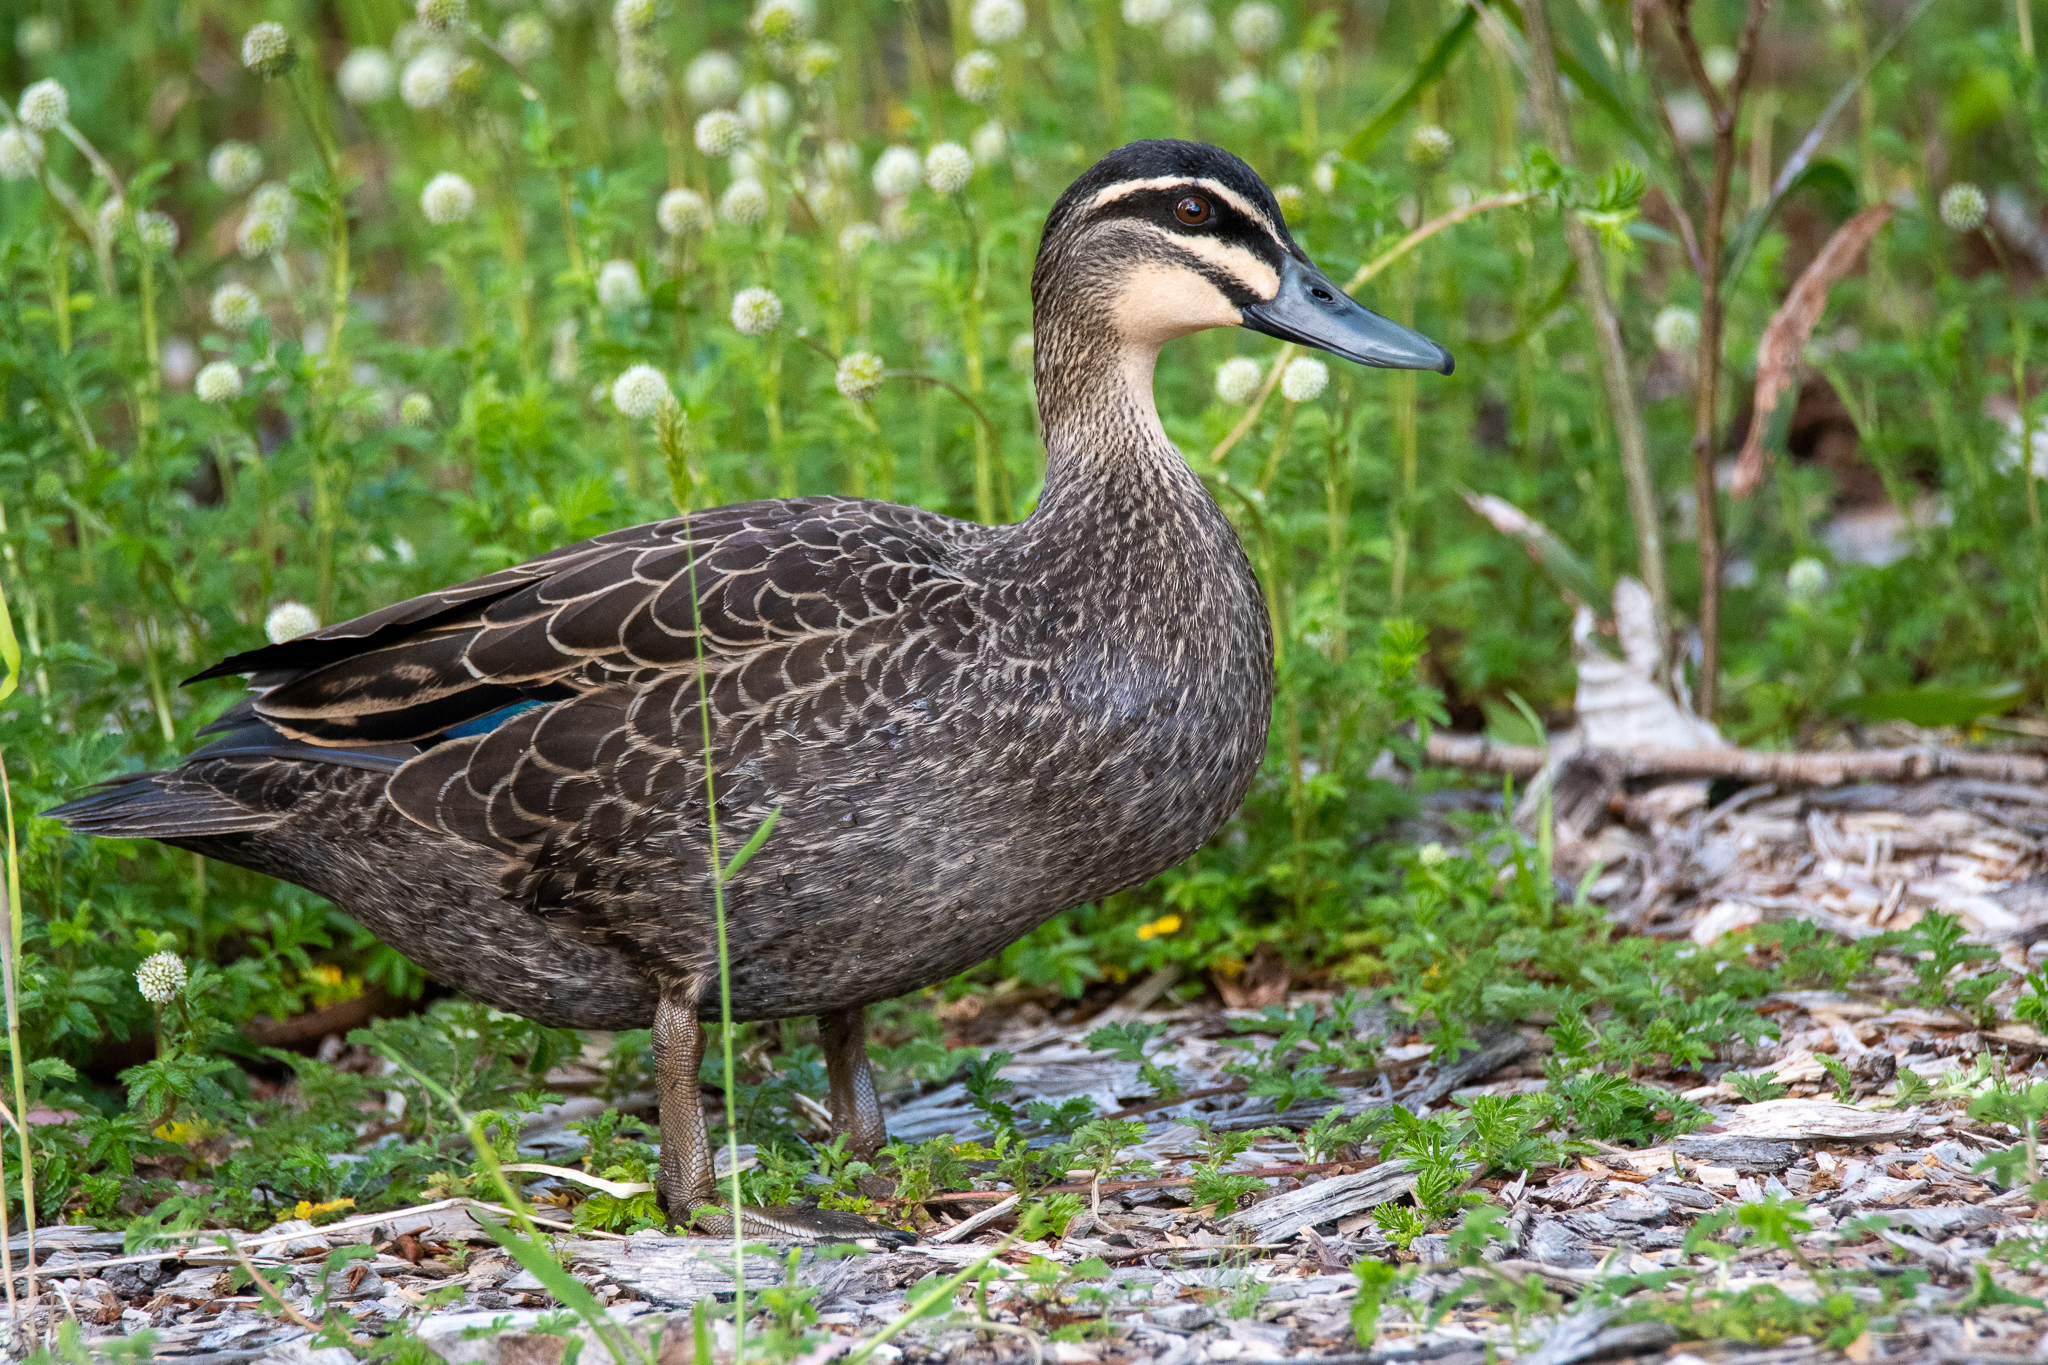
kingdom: Animalia
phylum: Chordata
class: Aves
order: Anseriformes
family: Anatidae
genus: Anas
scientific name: Anas superciliosa
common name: Pacific black duck
